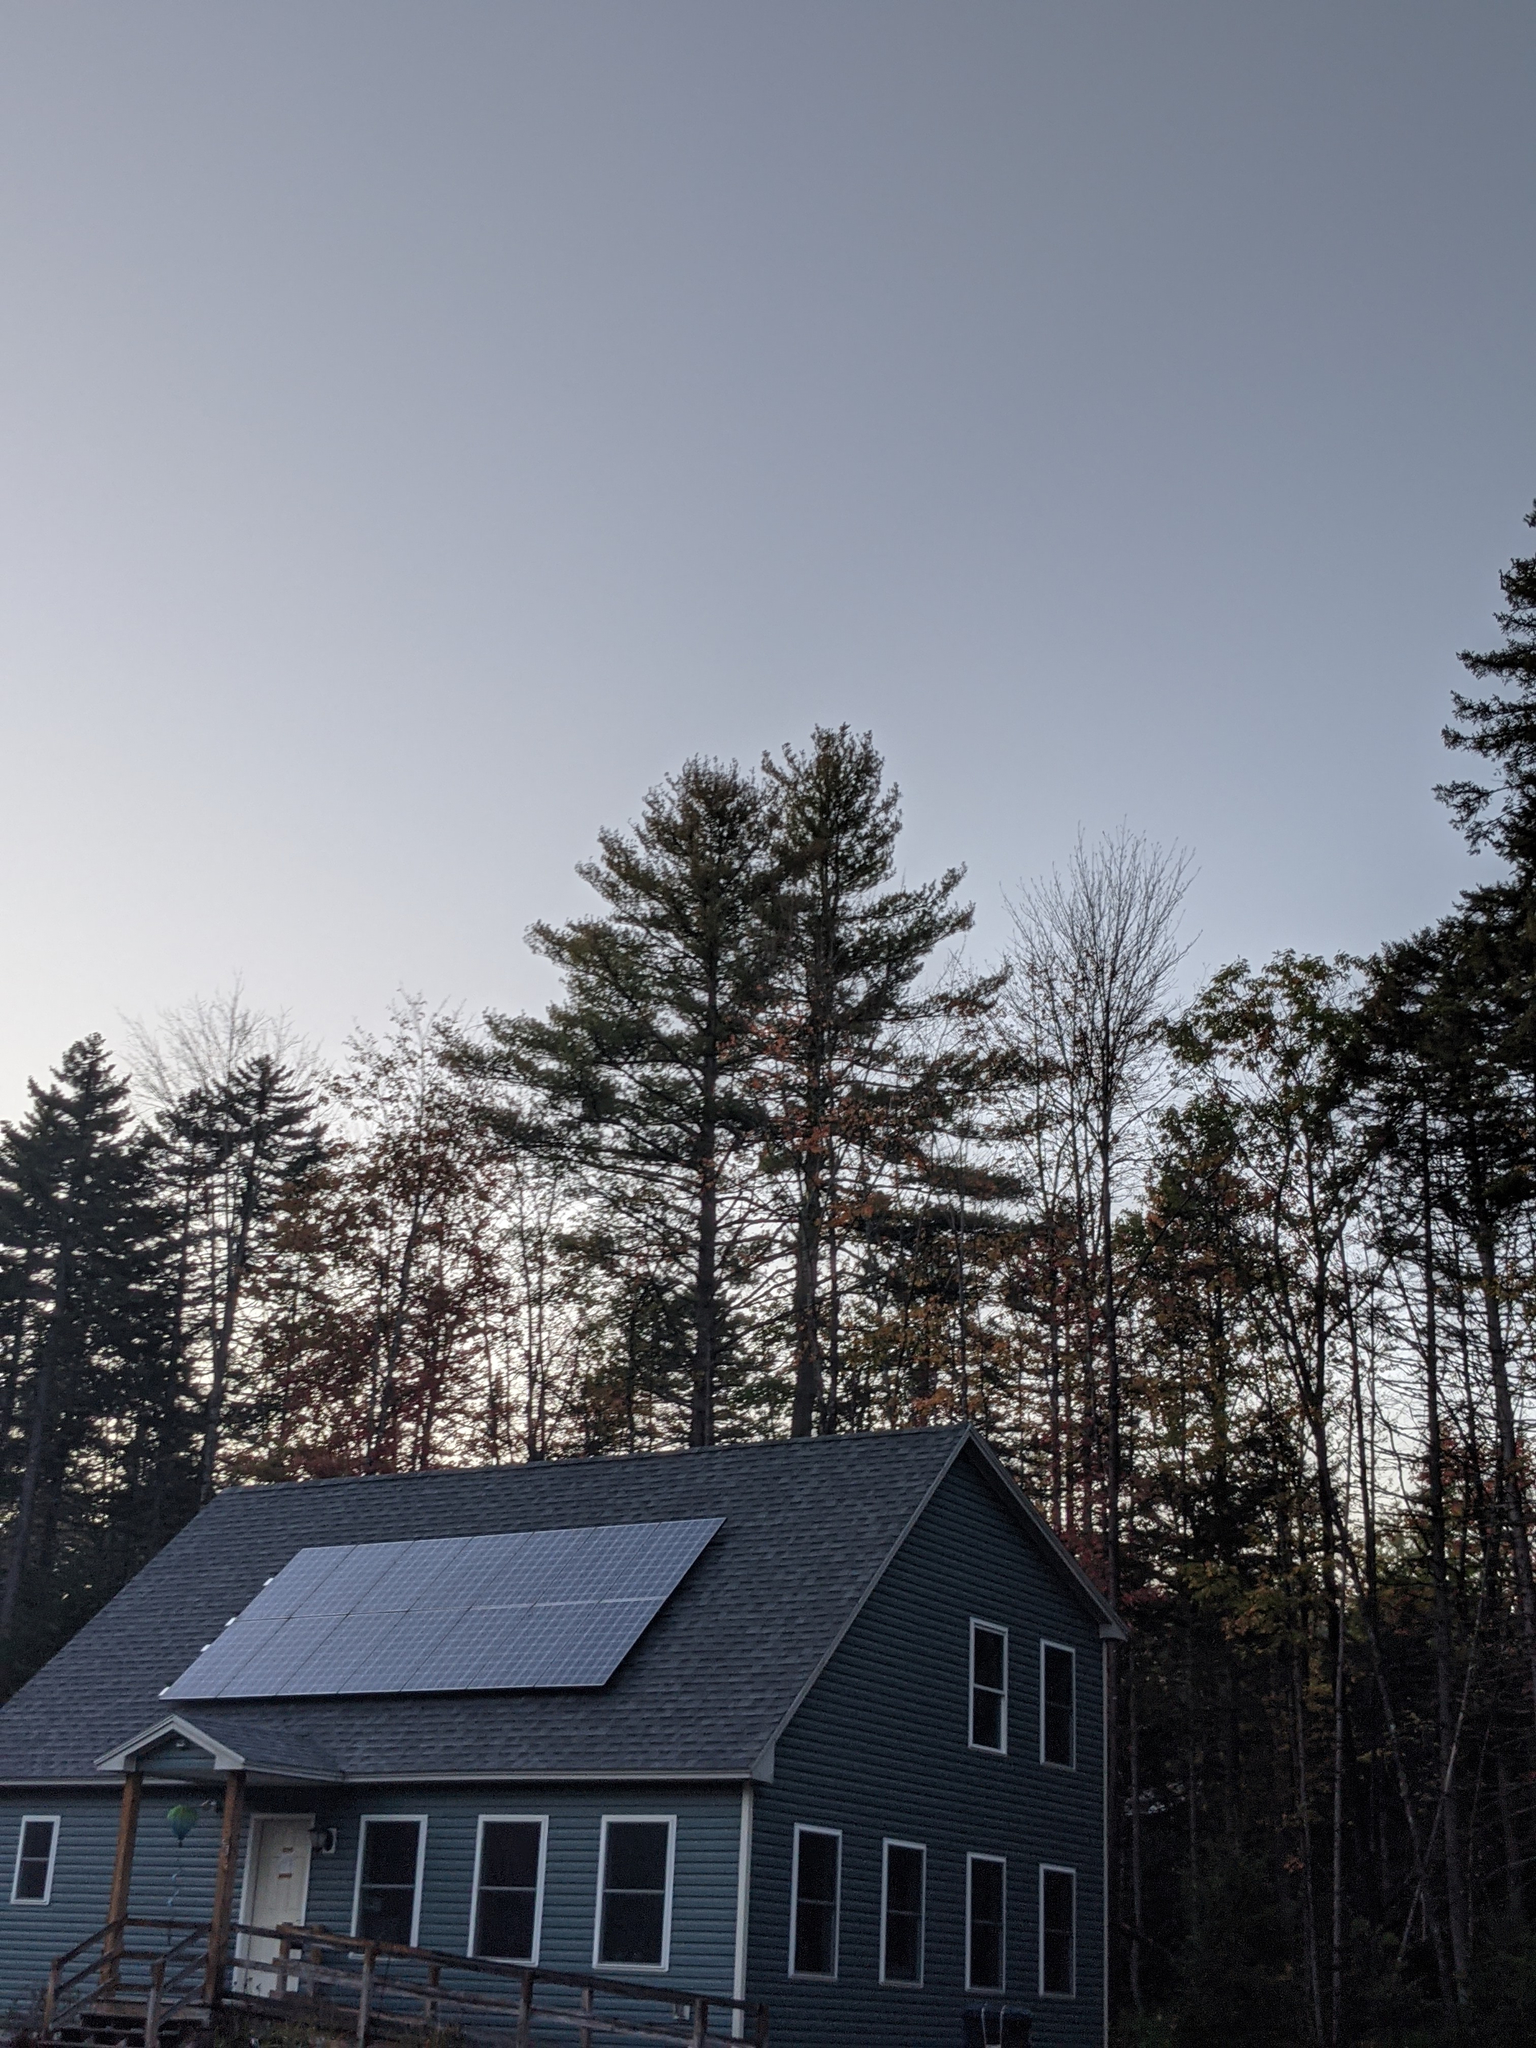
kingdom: Plantae
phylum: Tracheophyta
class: Pinopsida
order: Pinales
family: Pinaceae
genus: Pinus
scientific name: Pinus strobus
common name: Weymouth pine
